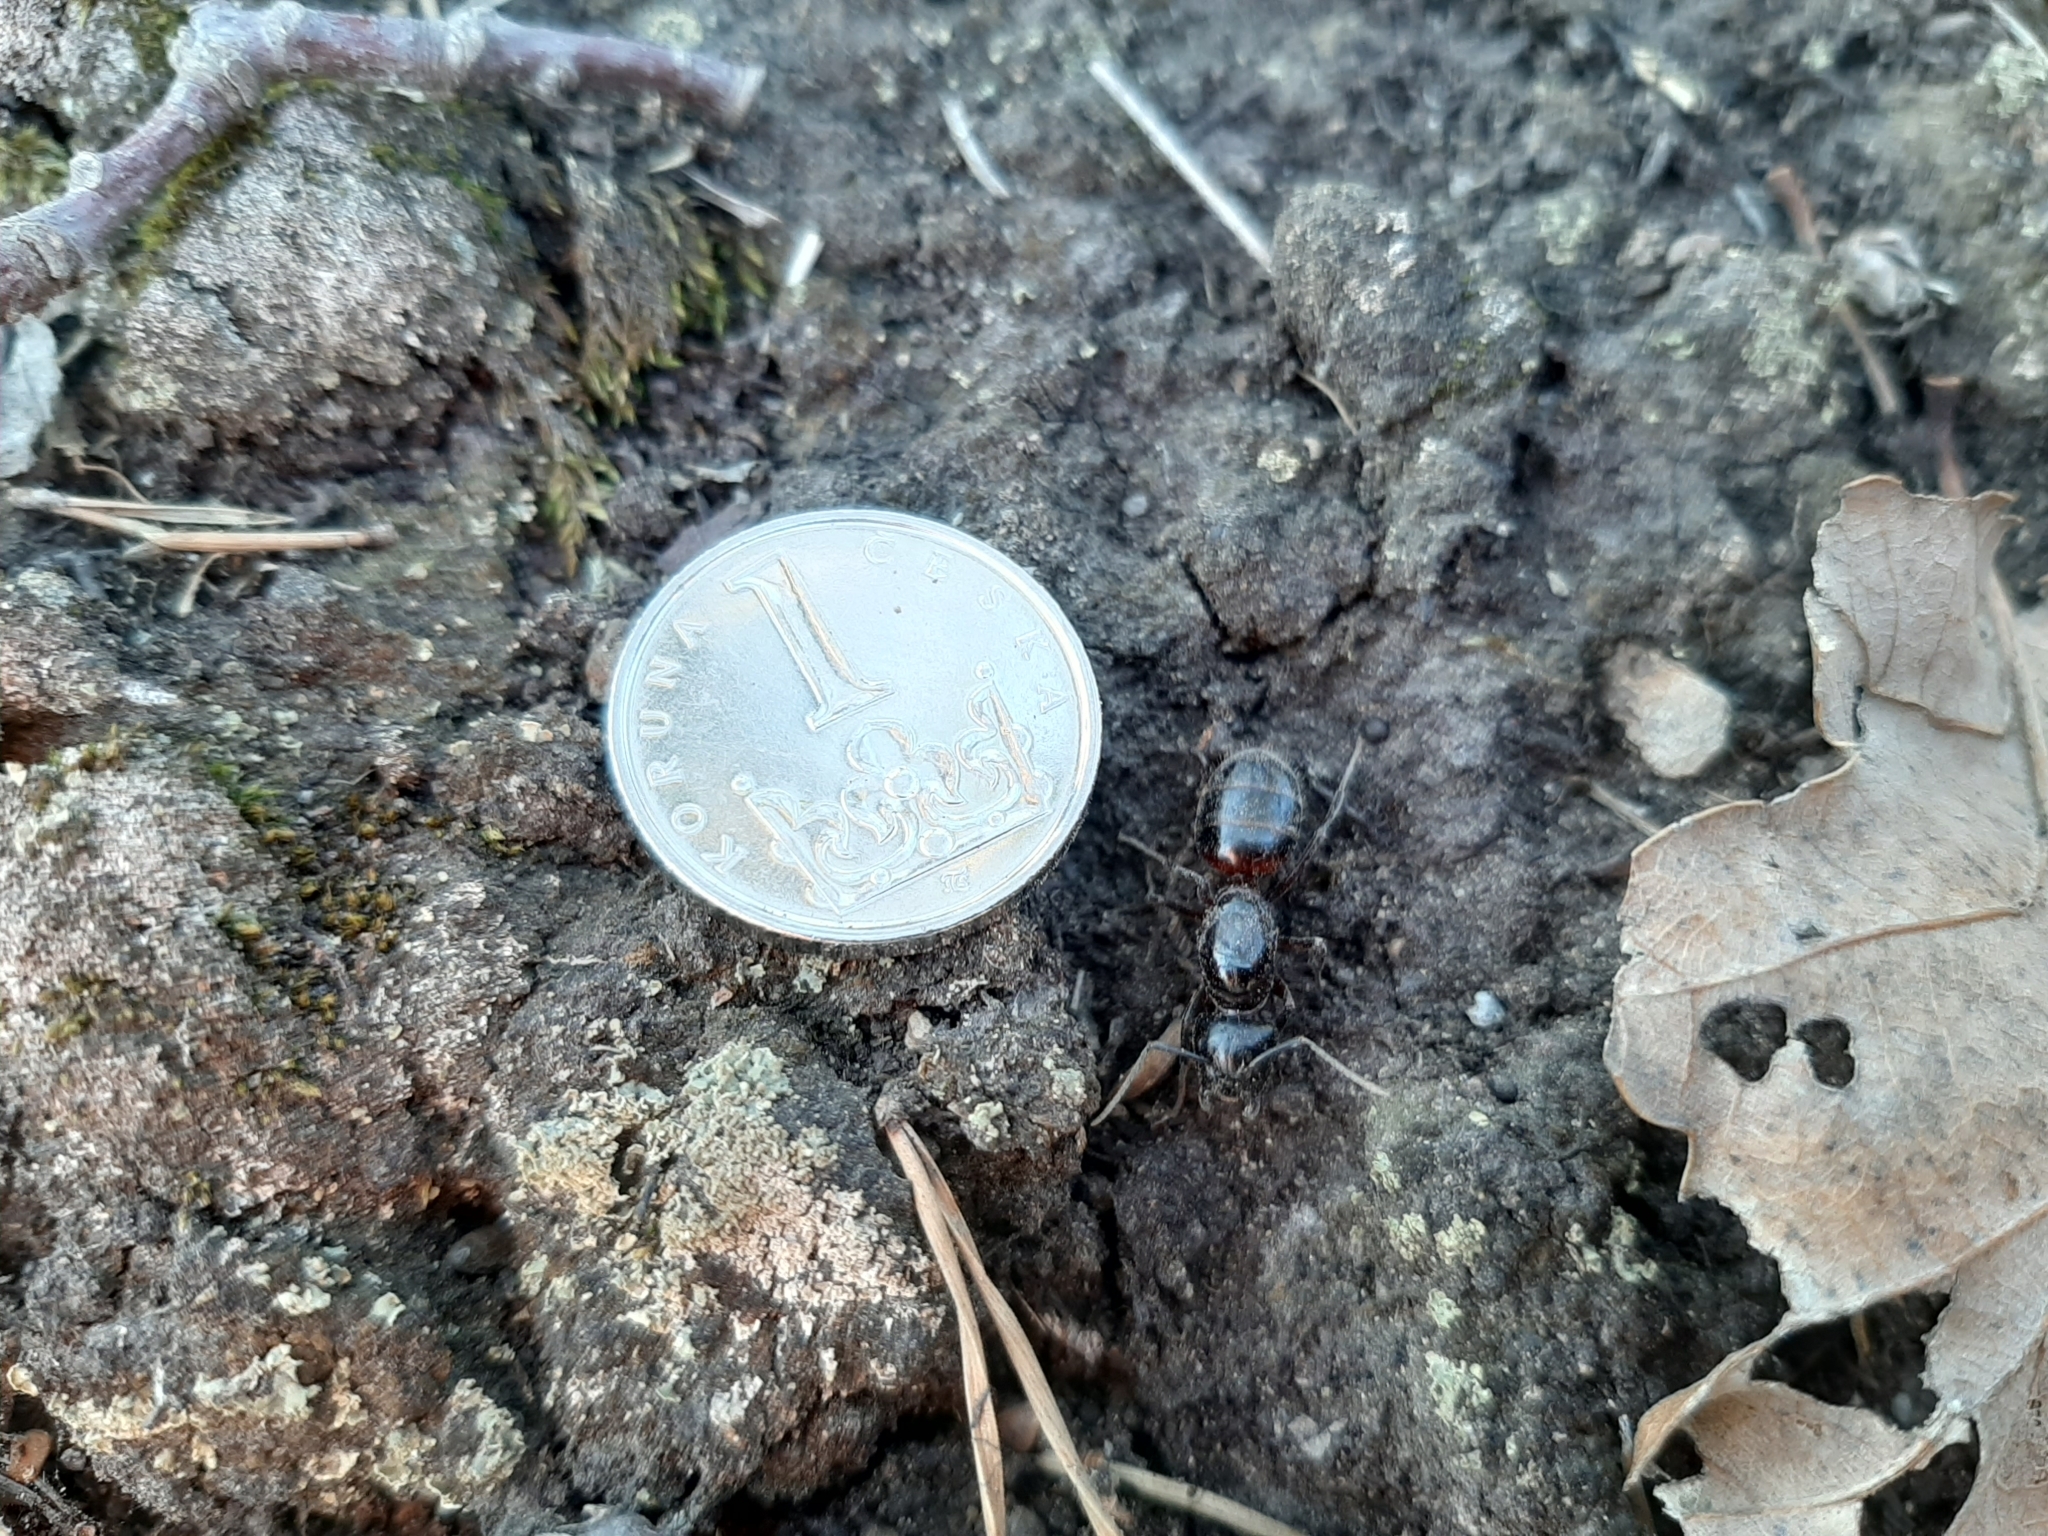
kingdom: Animalia
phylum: Arthropoda
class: Insecta
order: Hymenoptera
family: Formicidae
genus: Camponotus
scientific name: Camponotus ligniperdus
